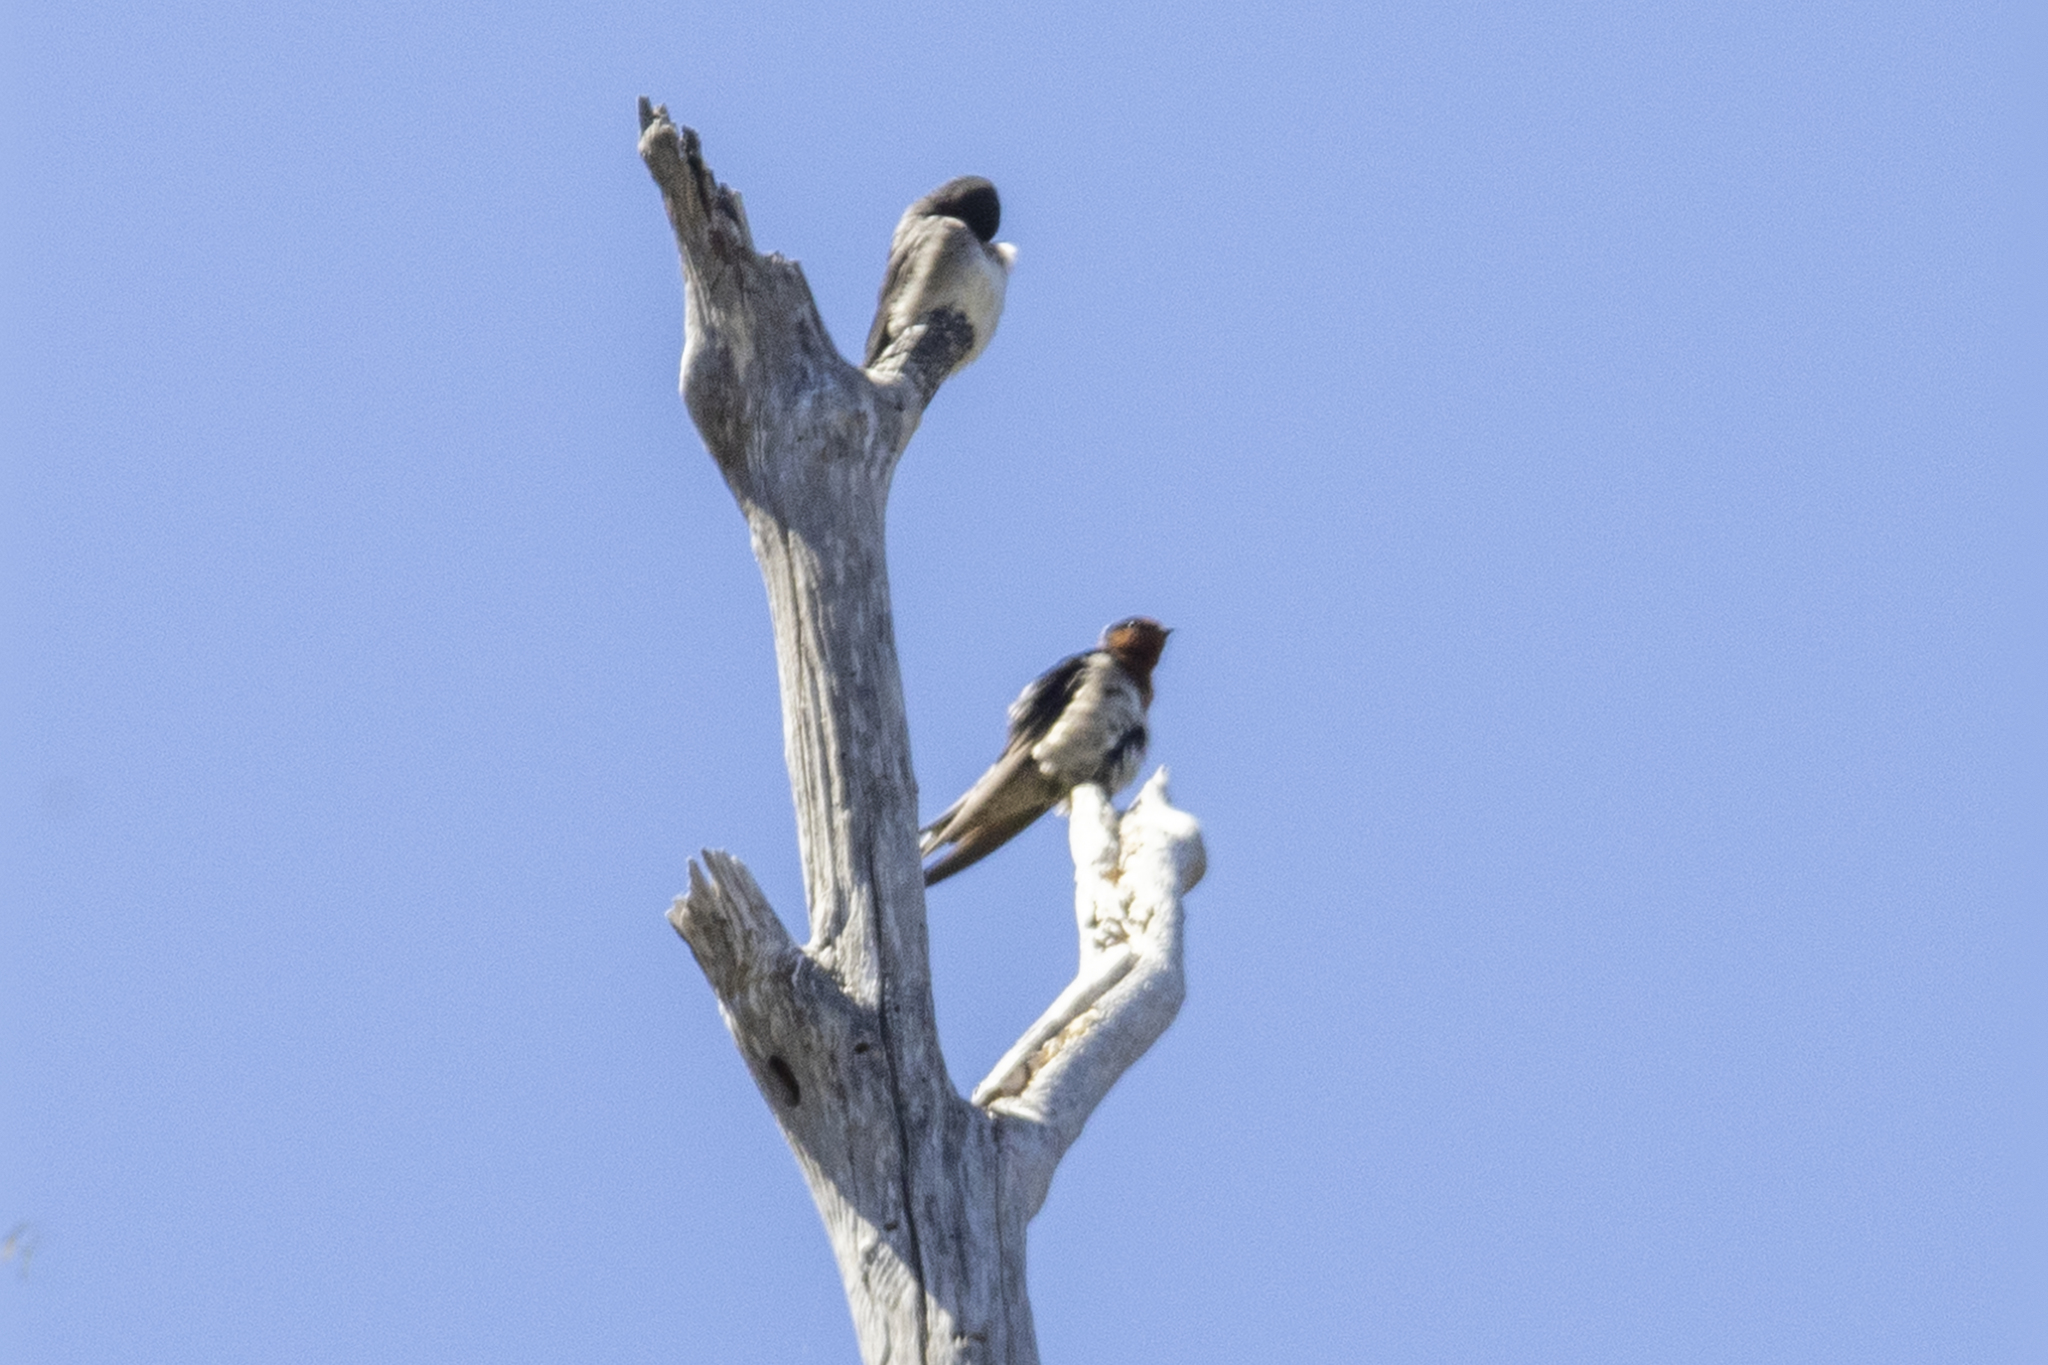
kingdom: Animalia
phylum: Chordata
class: Aves
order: Passeriformes
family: Hirundinidae
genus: Hirundo
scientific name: Hirundo neoxena
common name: Welcome swallow
